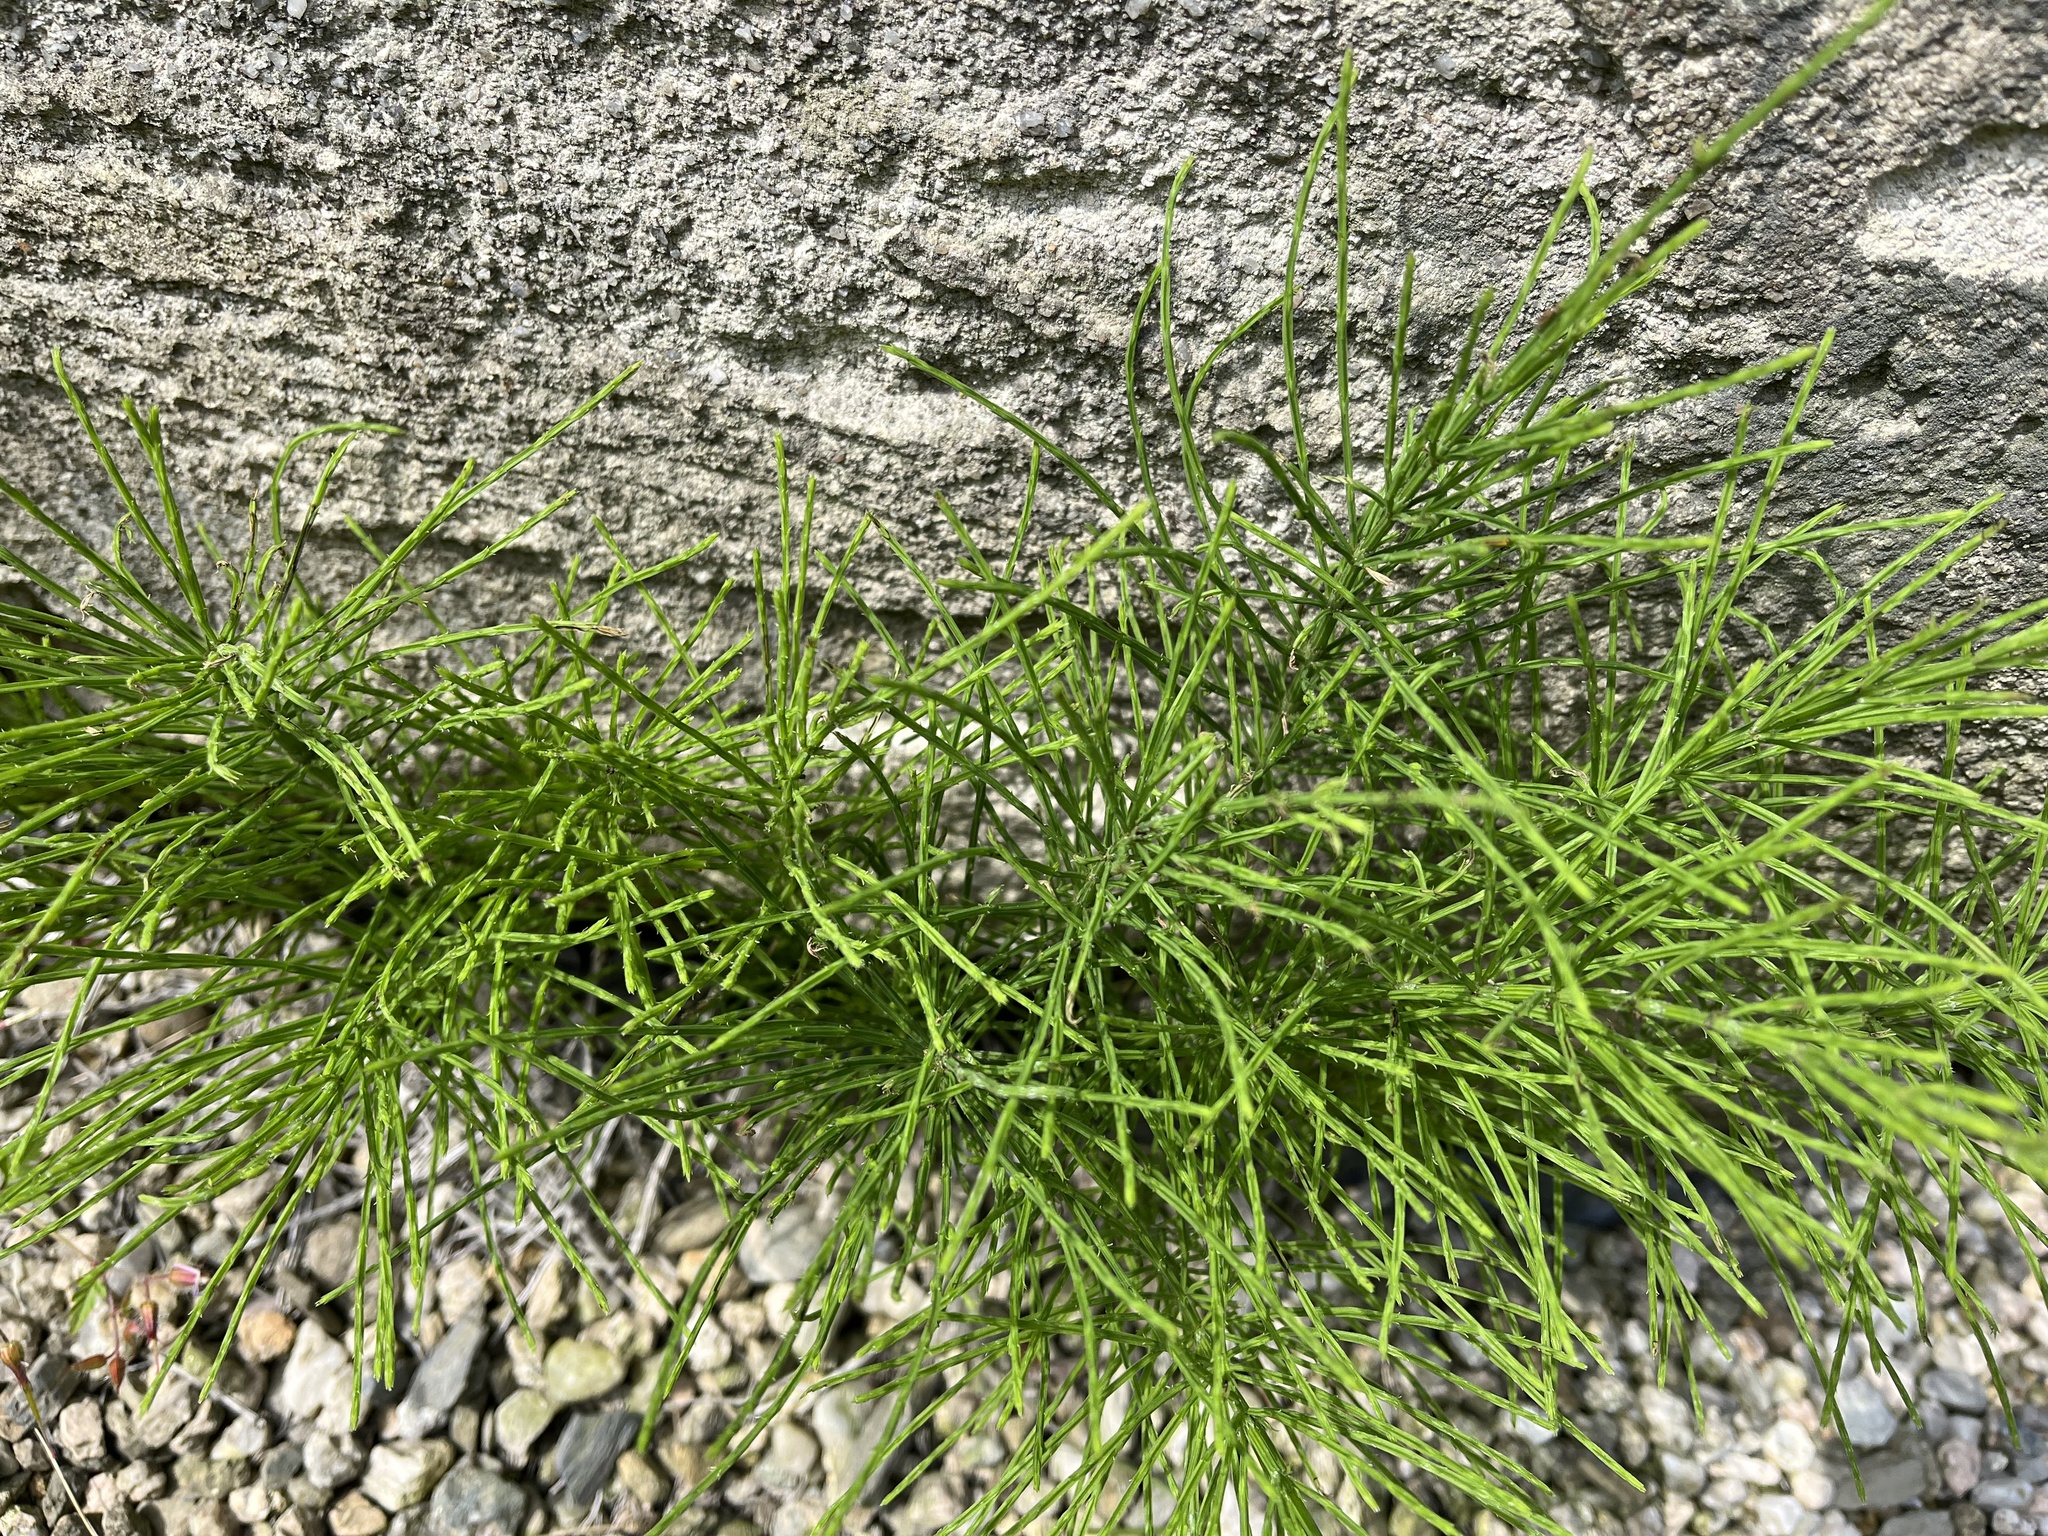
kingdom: Plantae
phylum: Tracheophyta
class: Polypodiopsida
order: Equisetales
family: Equisetaceae
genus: Equisetum
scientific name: Equisetum arvense
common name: Field horsetail
